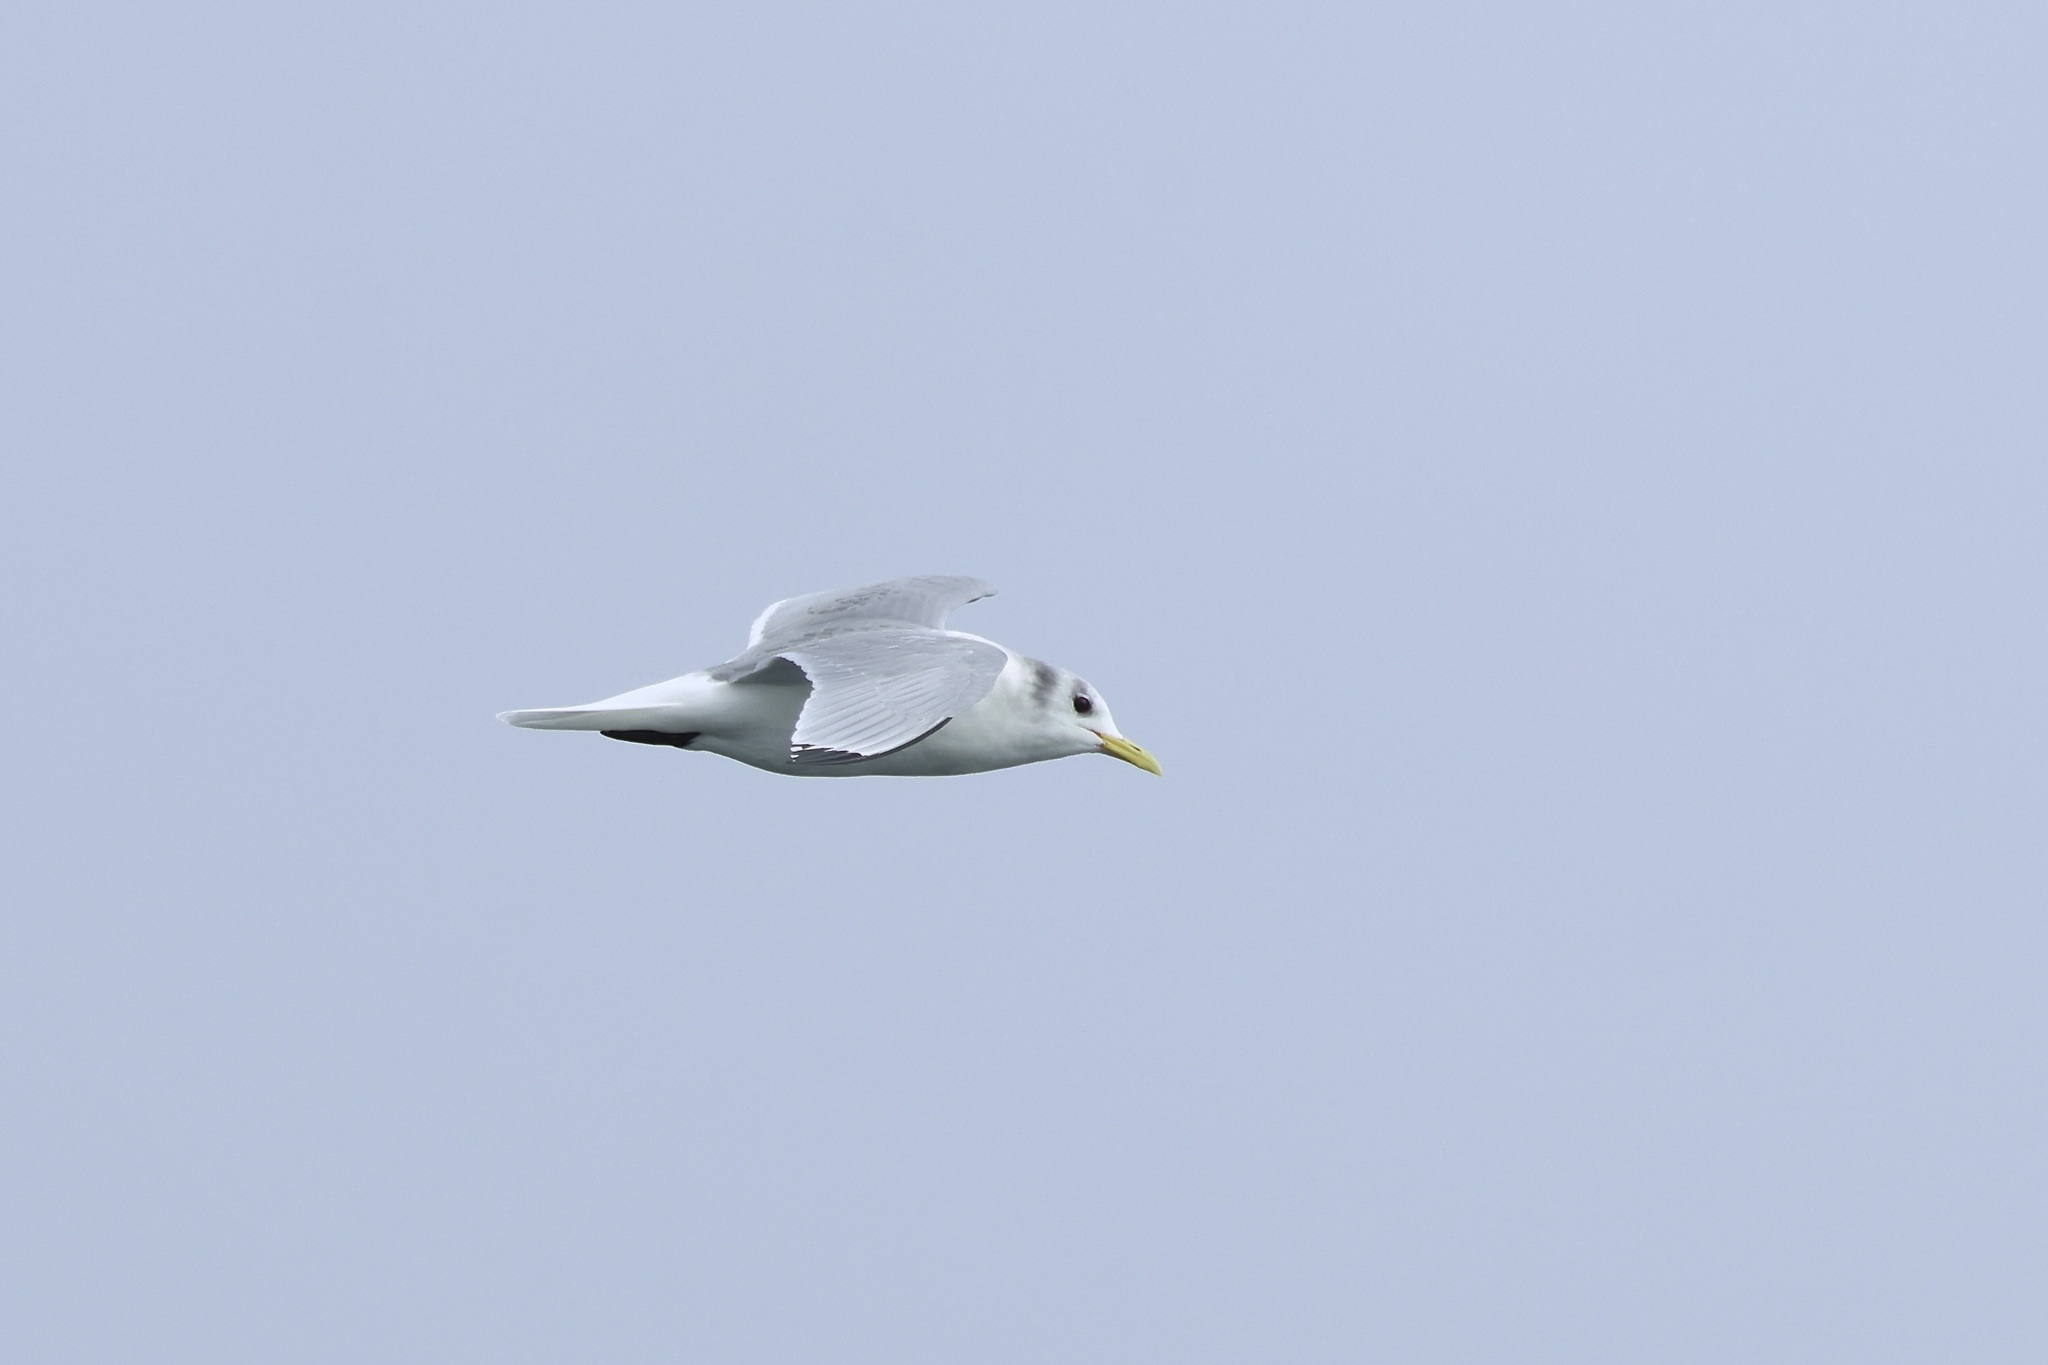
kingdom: Animalia
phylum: Chordata
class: Aves
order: Charadriiformes
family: Laridae
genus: Rissa
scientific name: Rissa tridactyla
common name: Black-legged kittiwake
